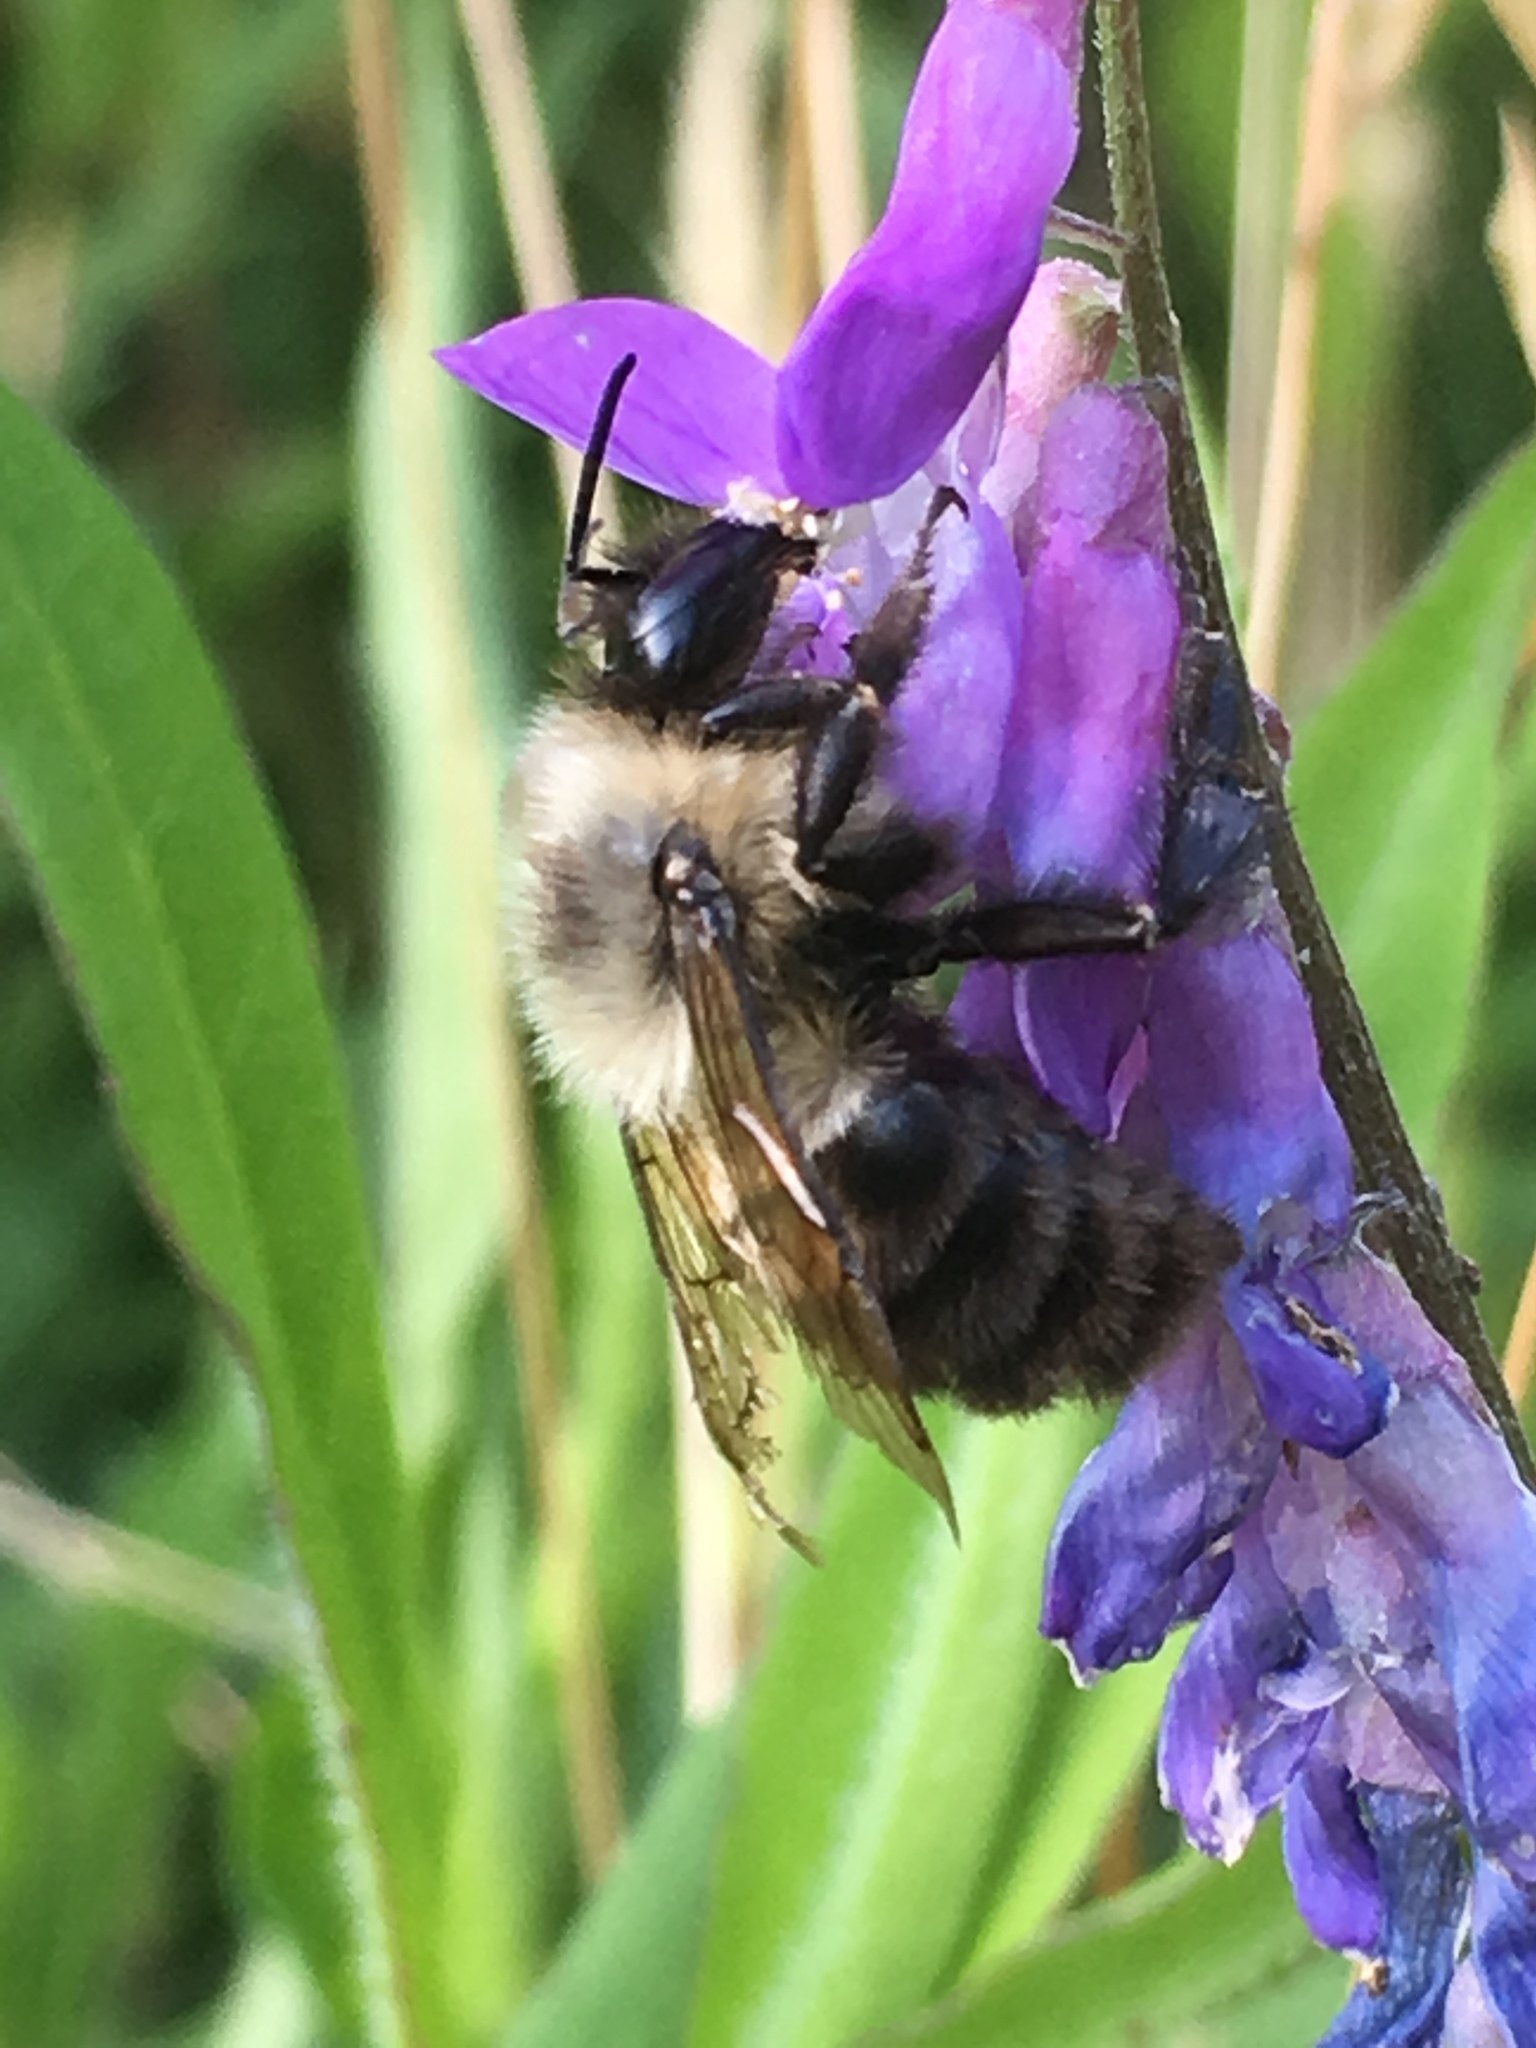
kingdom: Animalia
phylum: Arthropoda
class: Insecta
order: Hymenoptera
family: Apidae
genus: Bombus
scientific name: Bombus bimaculatus
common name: Two-spotted bumble bee
